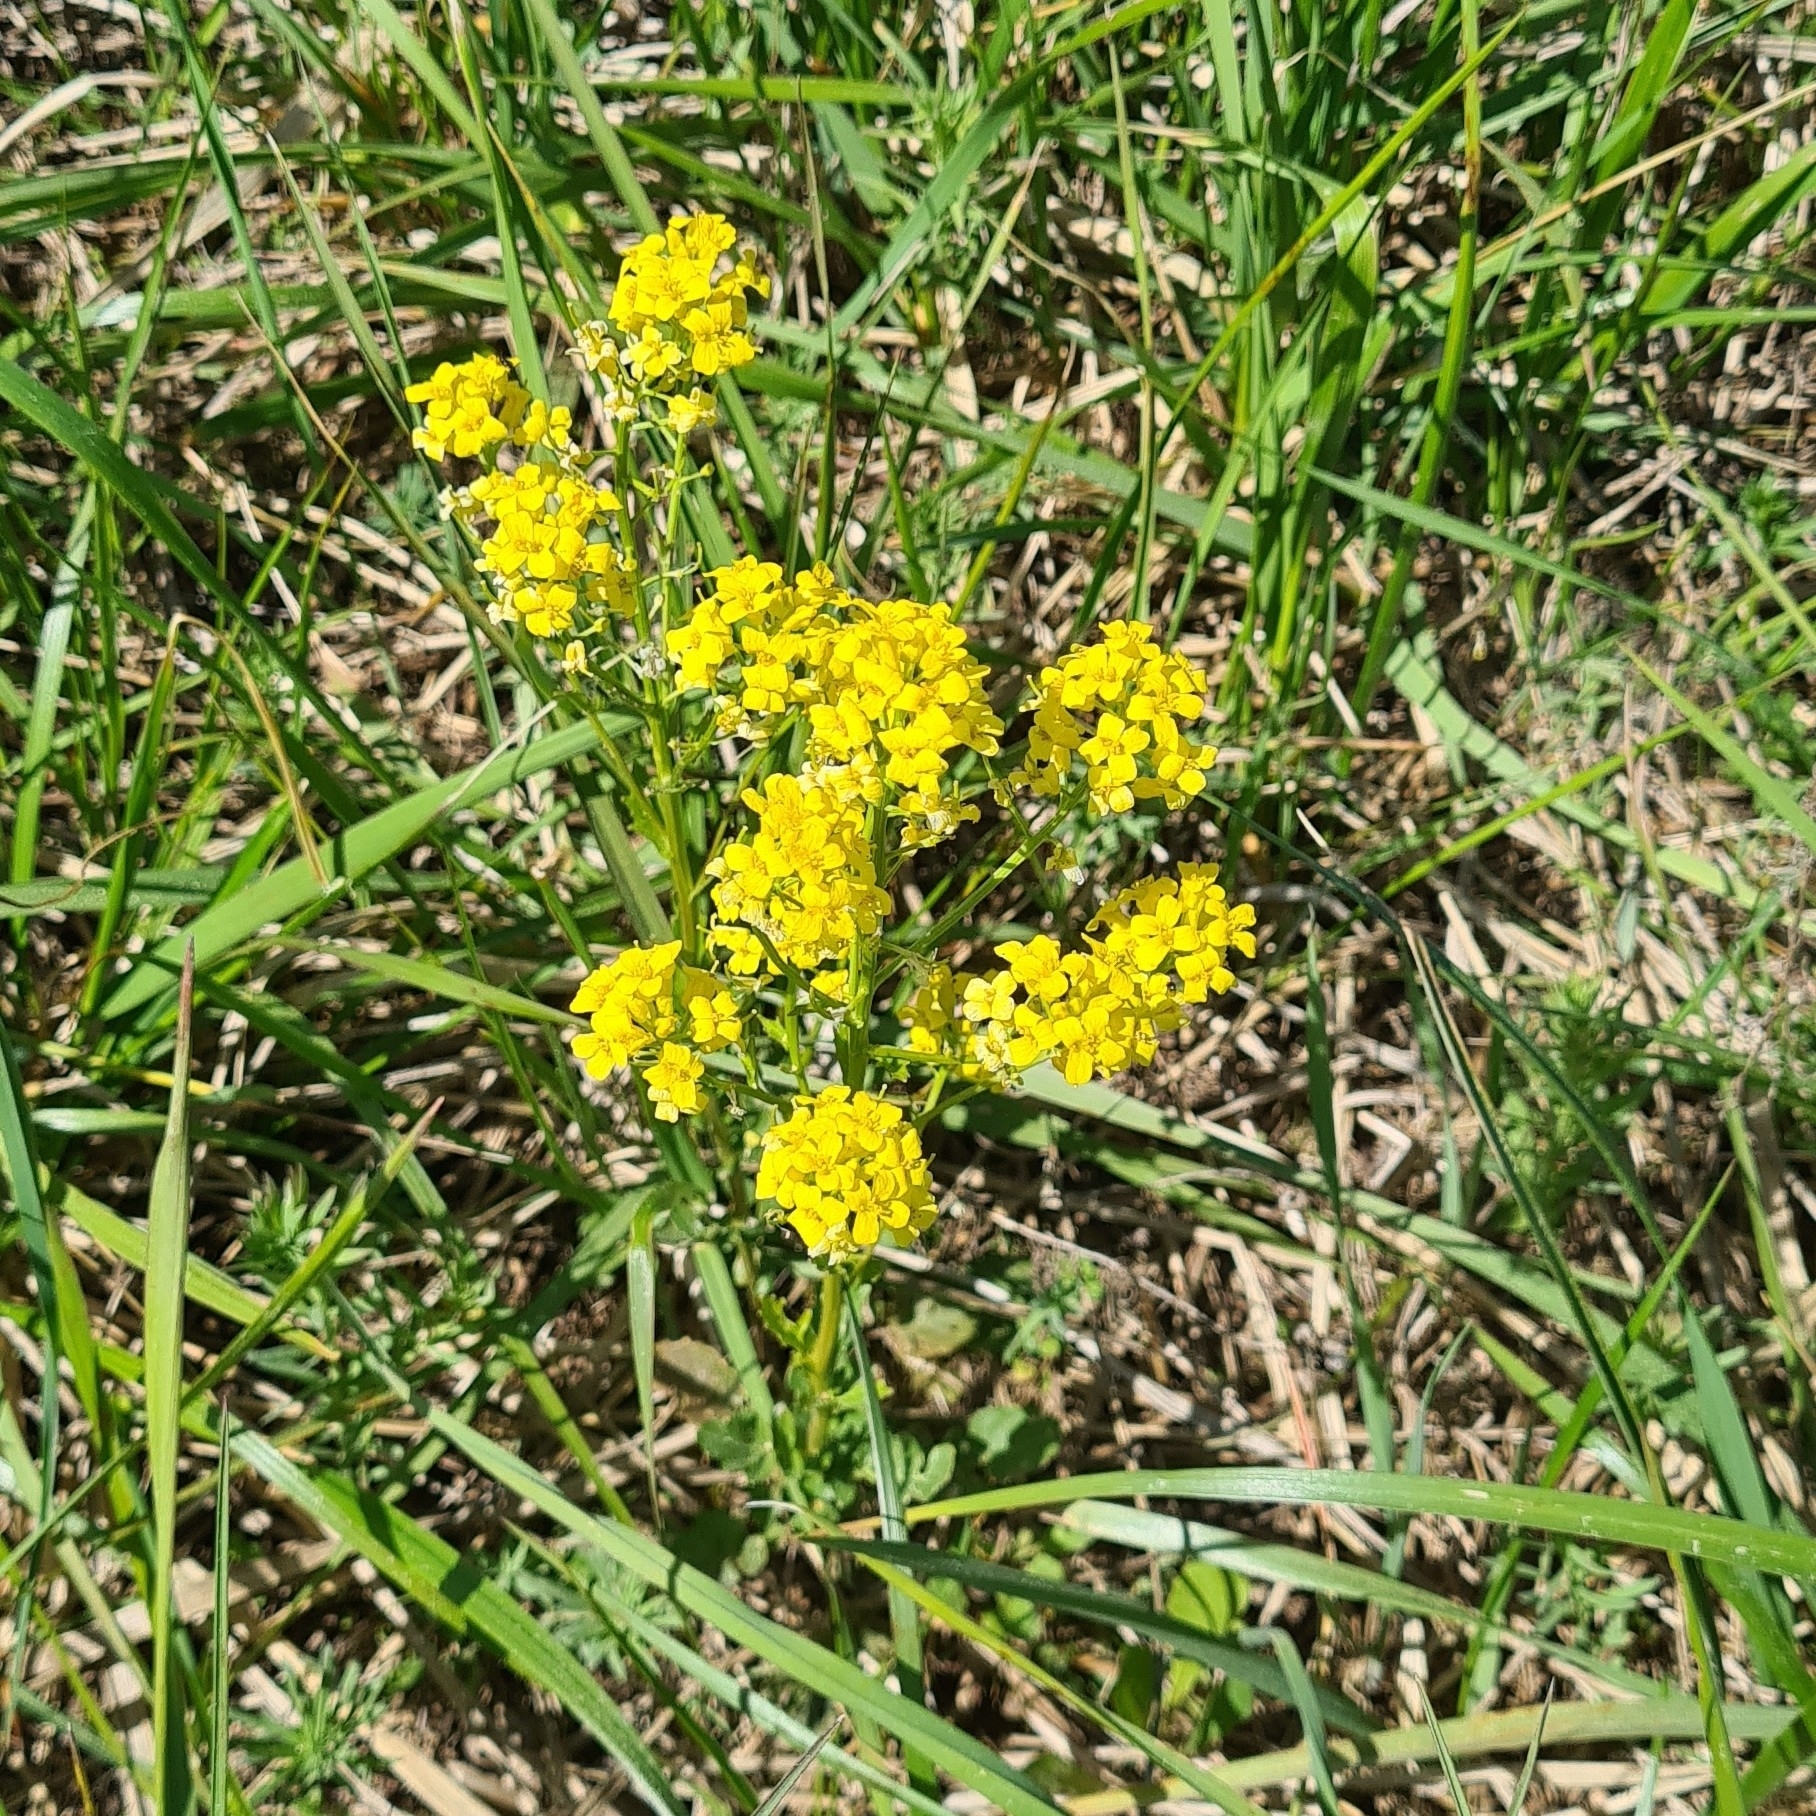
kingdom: Plantae
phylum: Tracheophyta
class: Magnoliopsida
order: Brassicales
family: Brassicaceae
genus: Barbarea
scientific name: Barbarea vulgaris
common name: Cressy-greens
